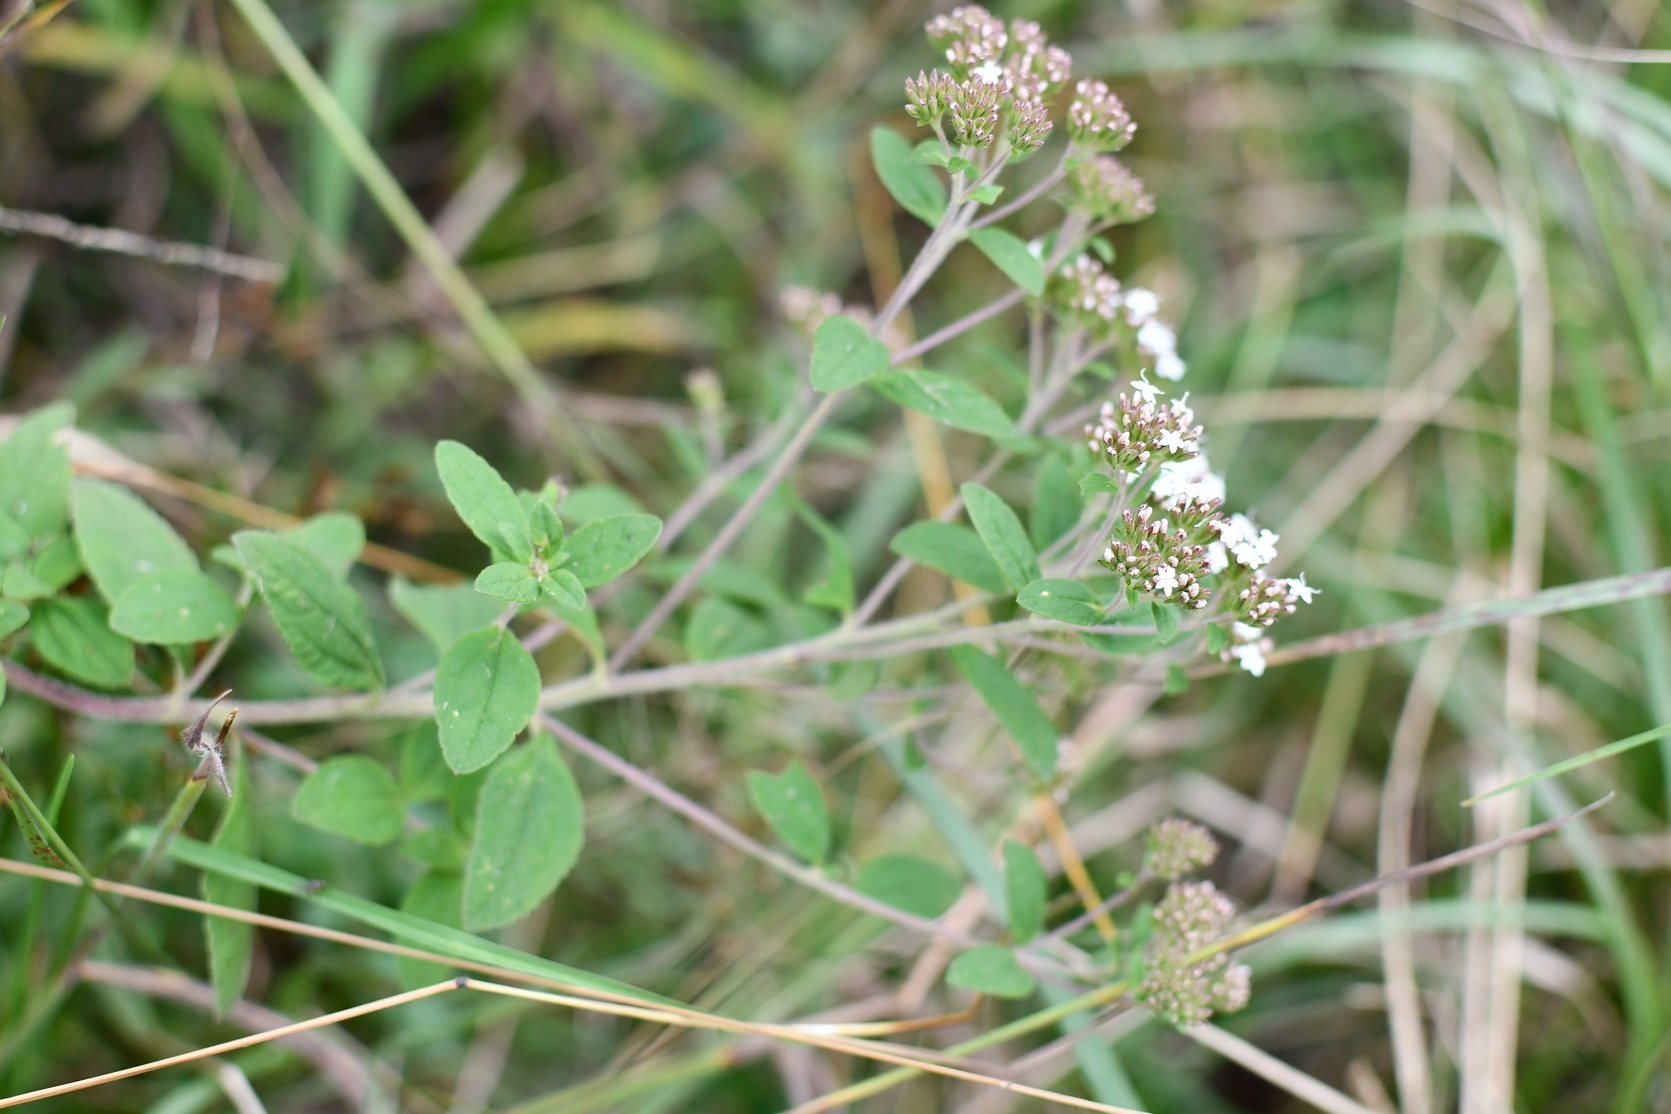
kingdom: Plantae
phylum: Tracheophyta
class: Magnoliopsida
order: Asterales
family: Asteraceae
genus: Stevia
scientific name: Stevia tomentosa
